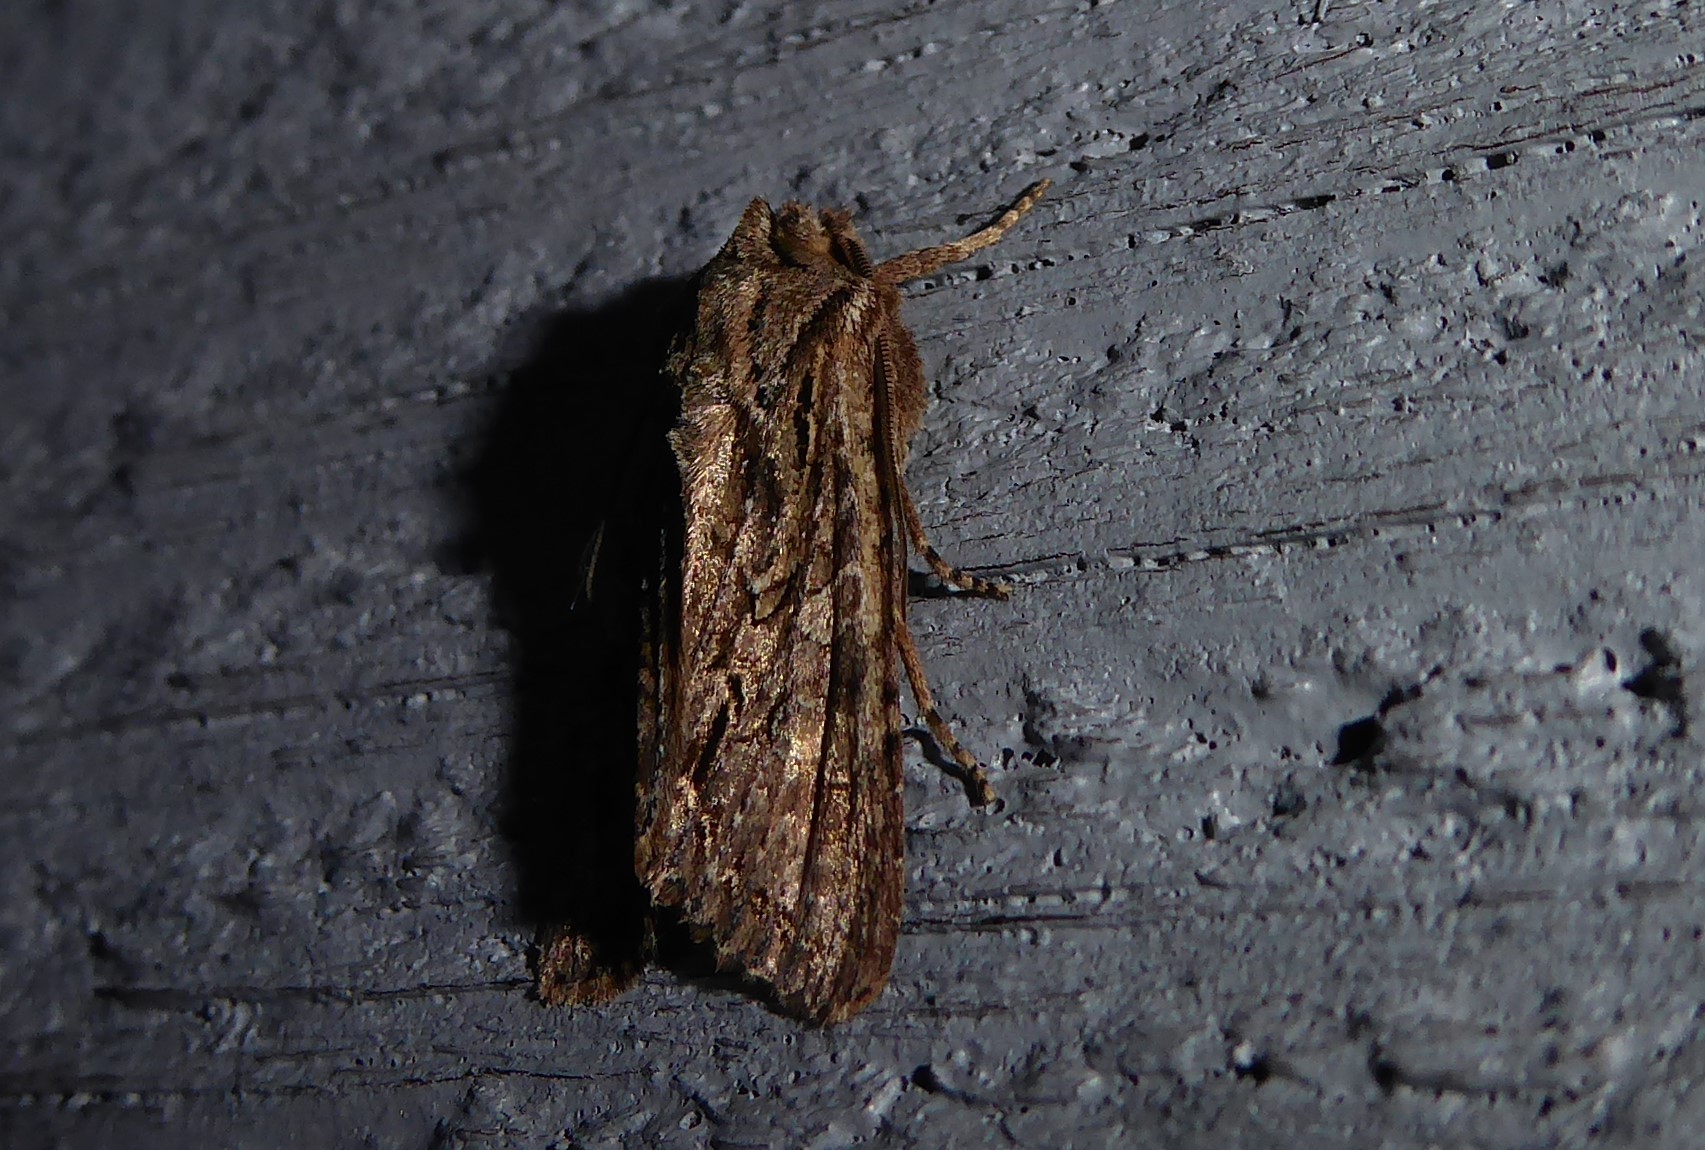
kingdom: Animalia
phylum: Arthropoda
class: Insecta
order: Lepidoptera
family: Noctuidae
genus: Ichneutica
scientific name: Ichneutica mutans
